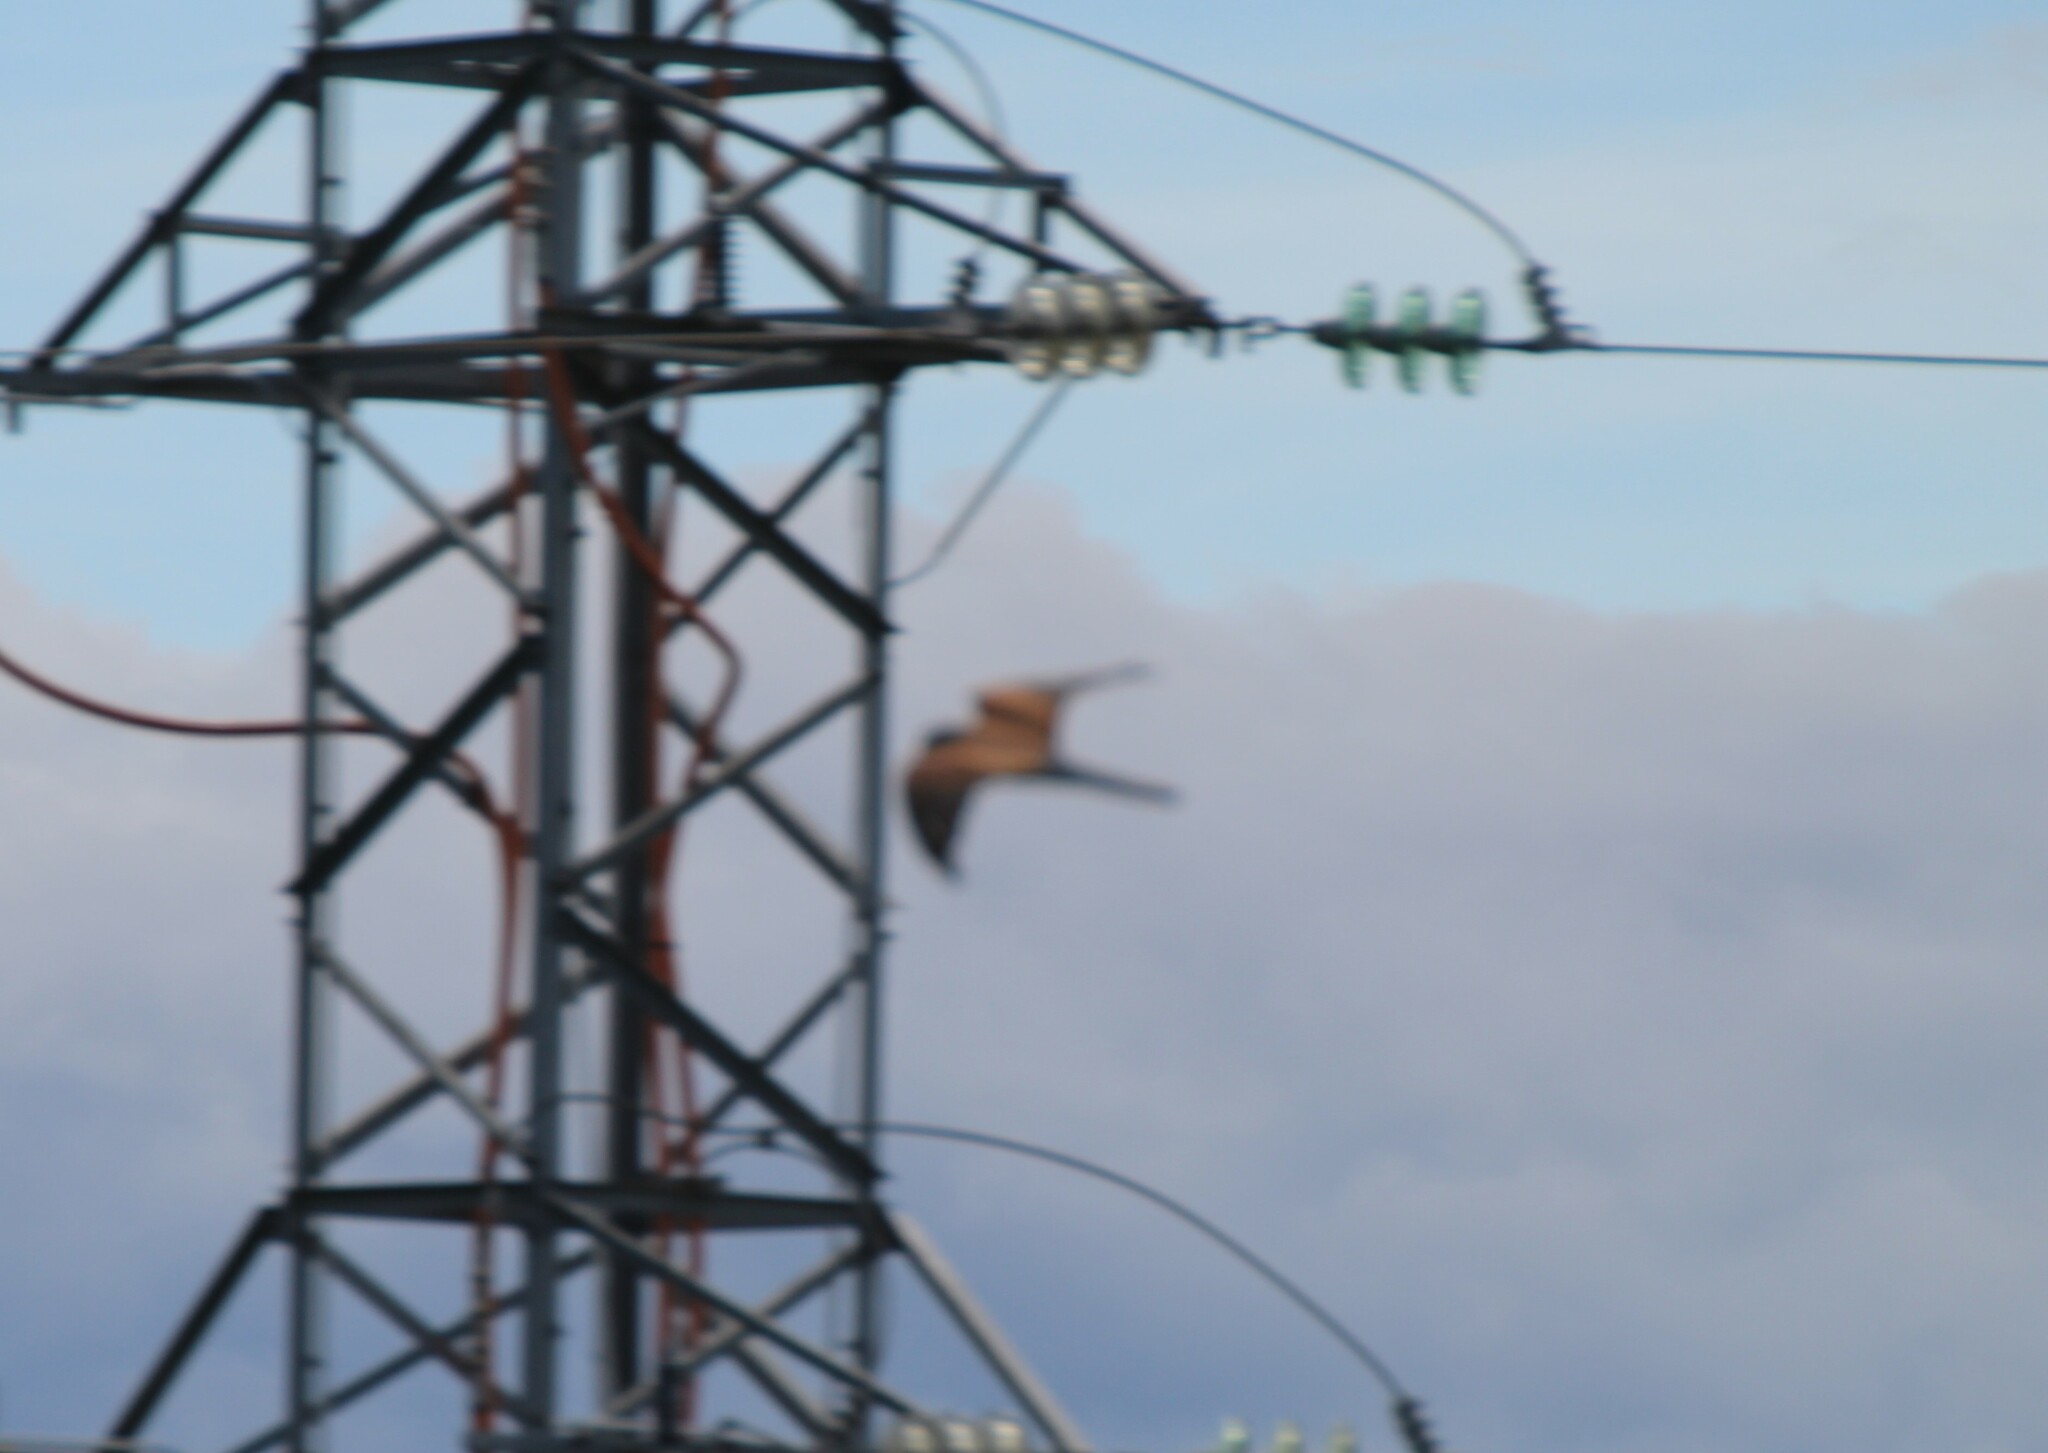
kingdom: Animalia
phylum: Chordata
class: Aves
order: Falconiformes
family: Falconidae
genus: Falco
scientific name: Falco tinnunculus
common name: Common kestrel
